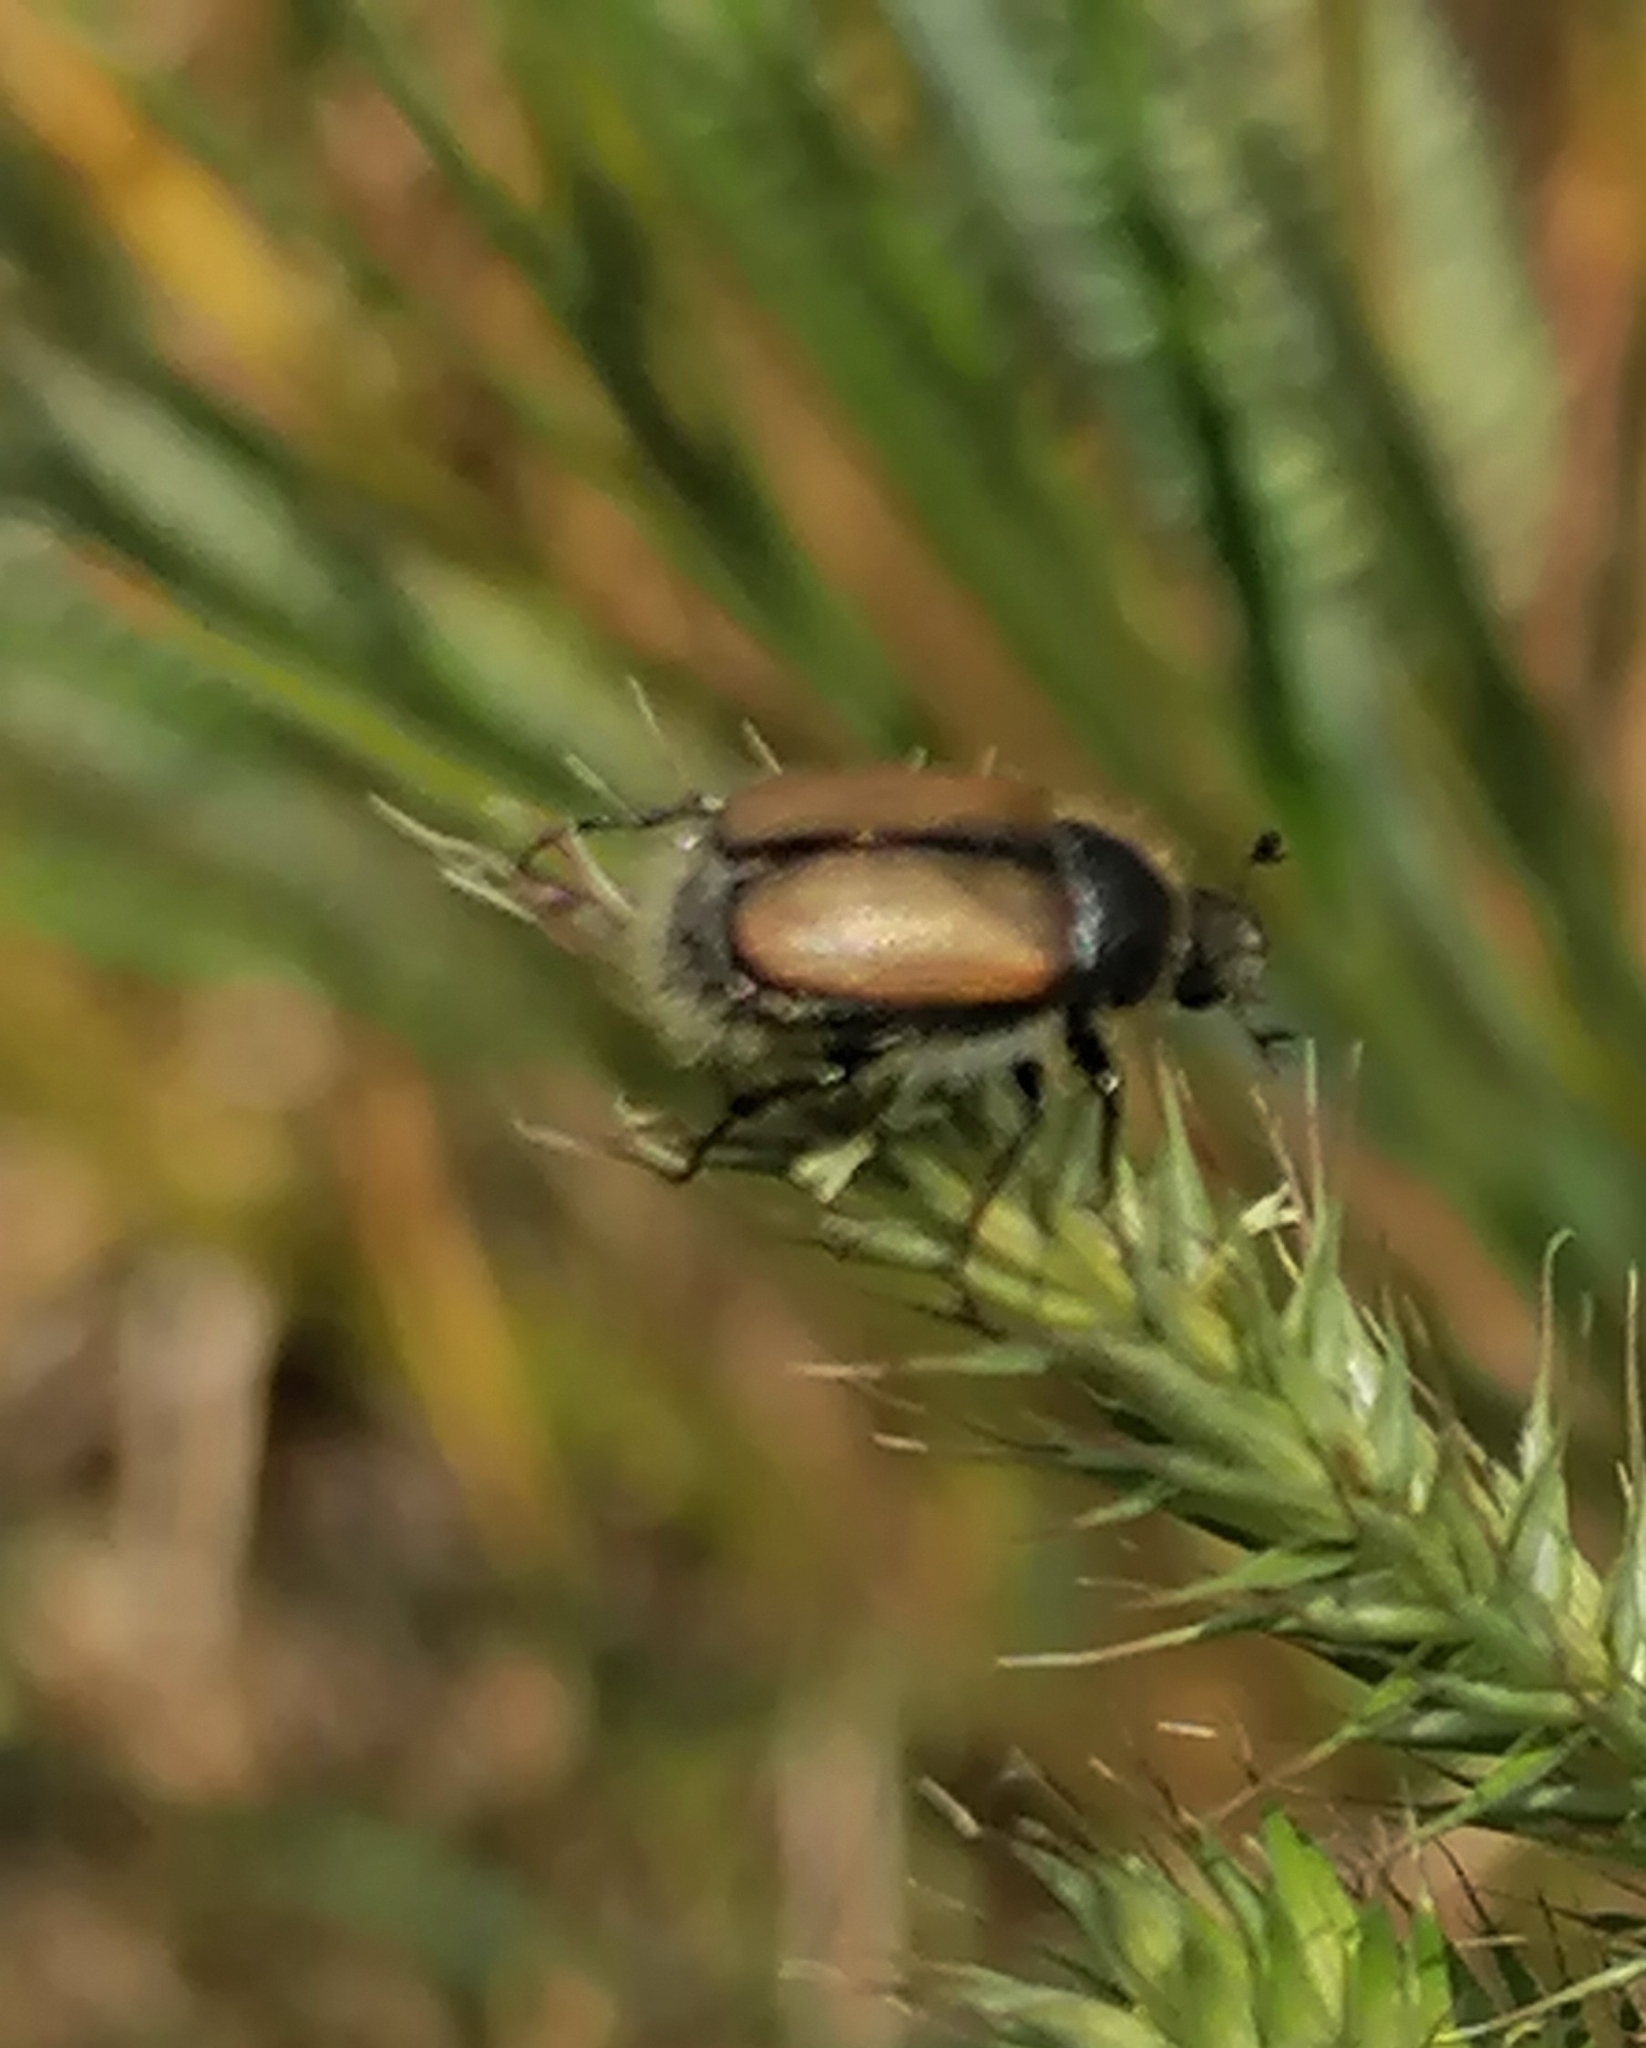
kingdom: Animalia
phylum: Arthropoda
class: Insecta
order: Coleoptera
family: Scarabaeidae
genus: Omaloplia
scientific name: Omaloplia nigromarginata
